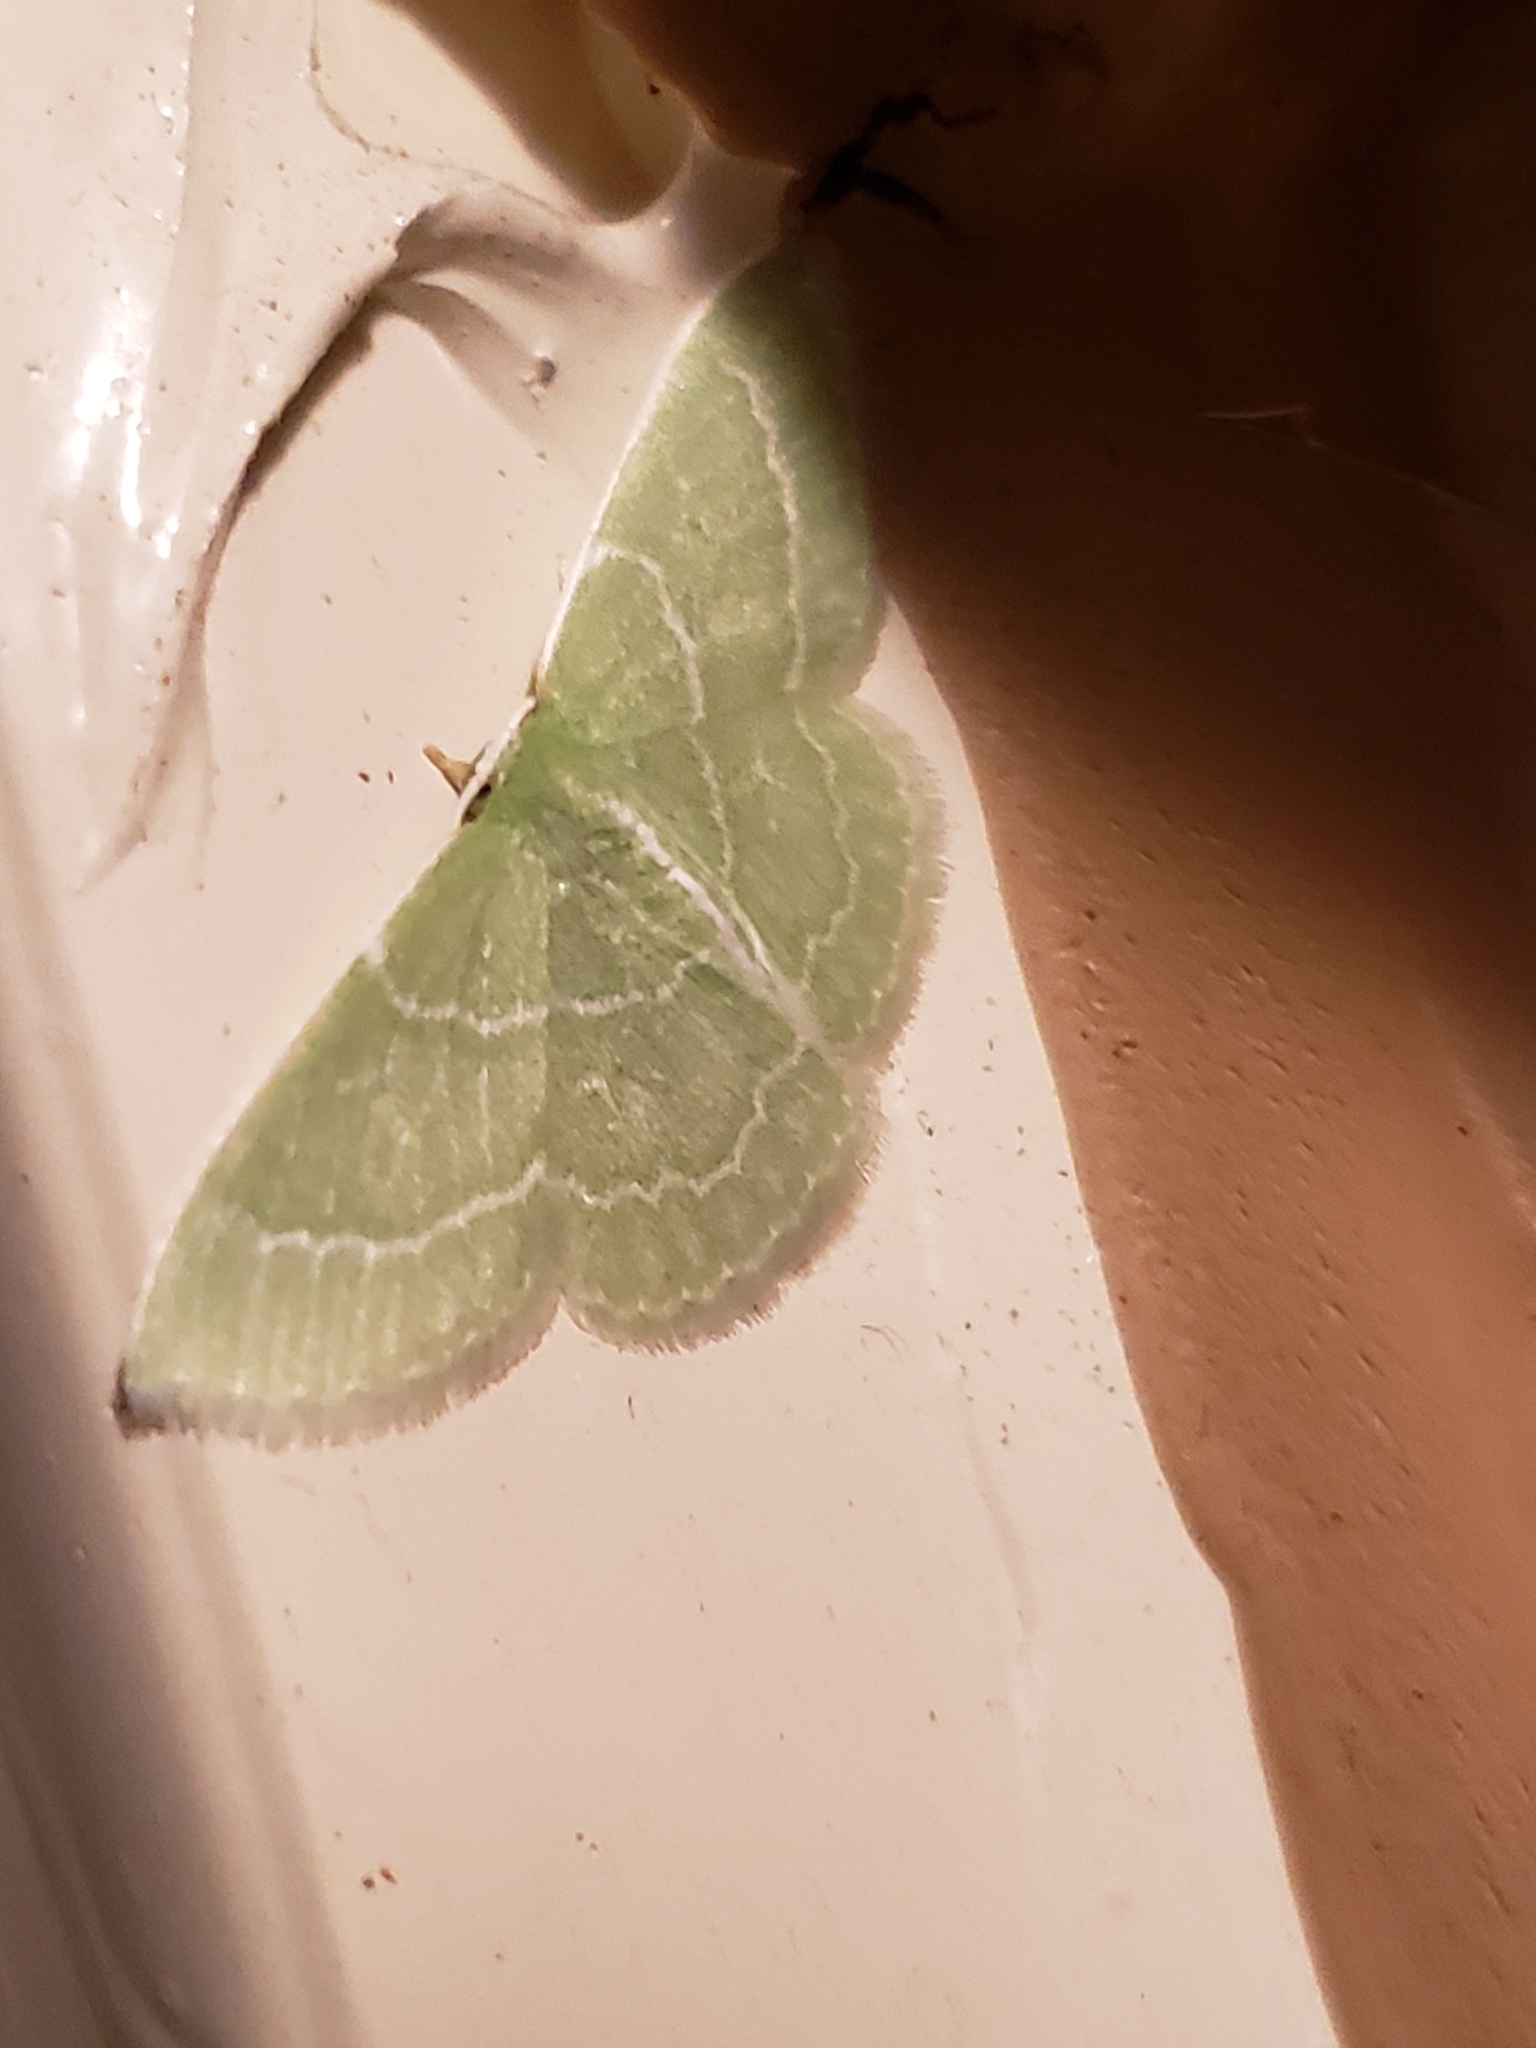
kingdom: Animalia
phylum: Arthropoda
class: Insecta
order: Lepidoptera
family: Geometridae
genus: Synchlora
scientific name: Synchlora aerata
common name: Wavy-lined emerald
